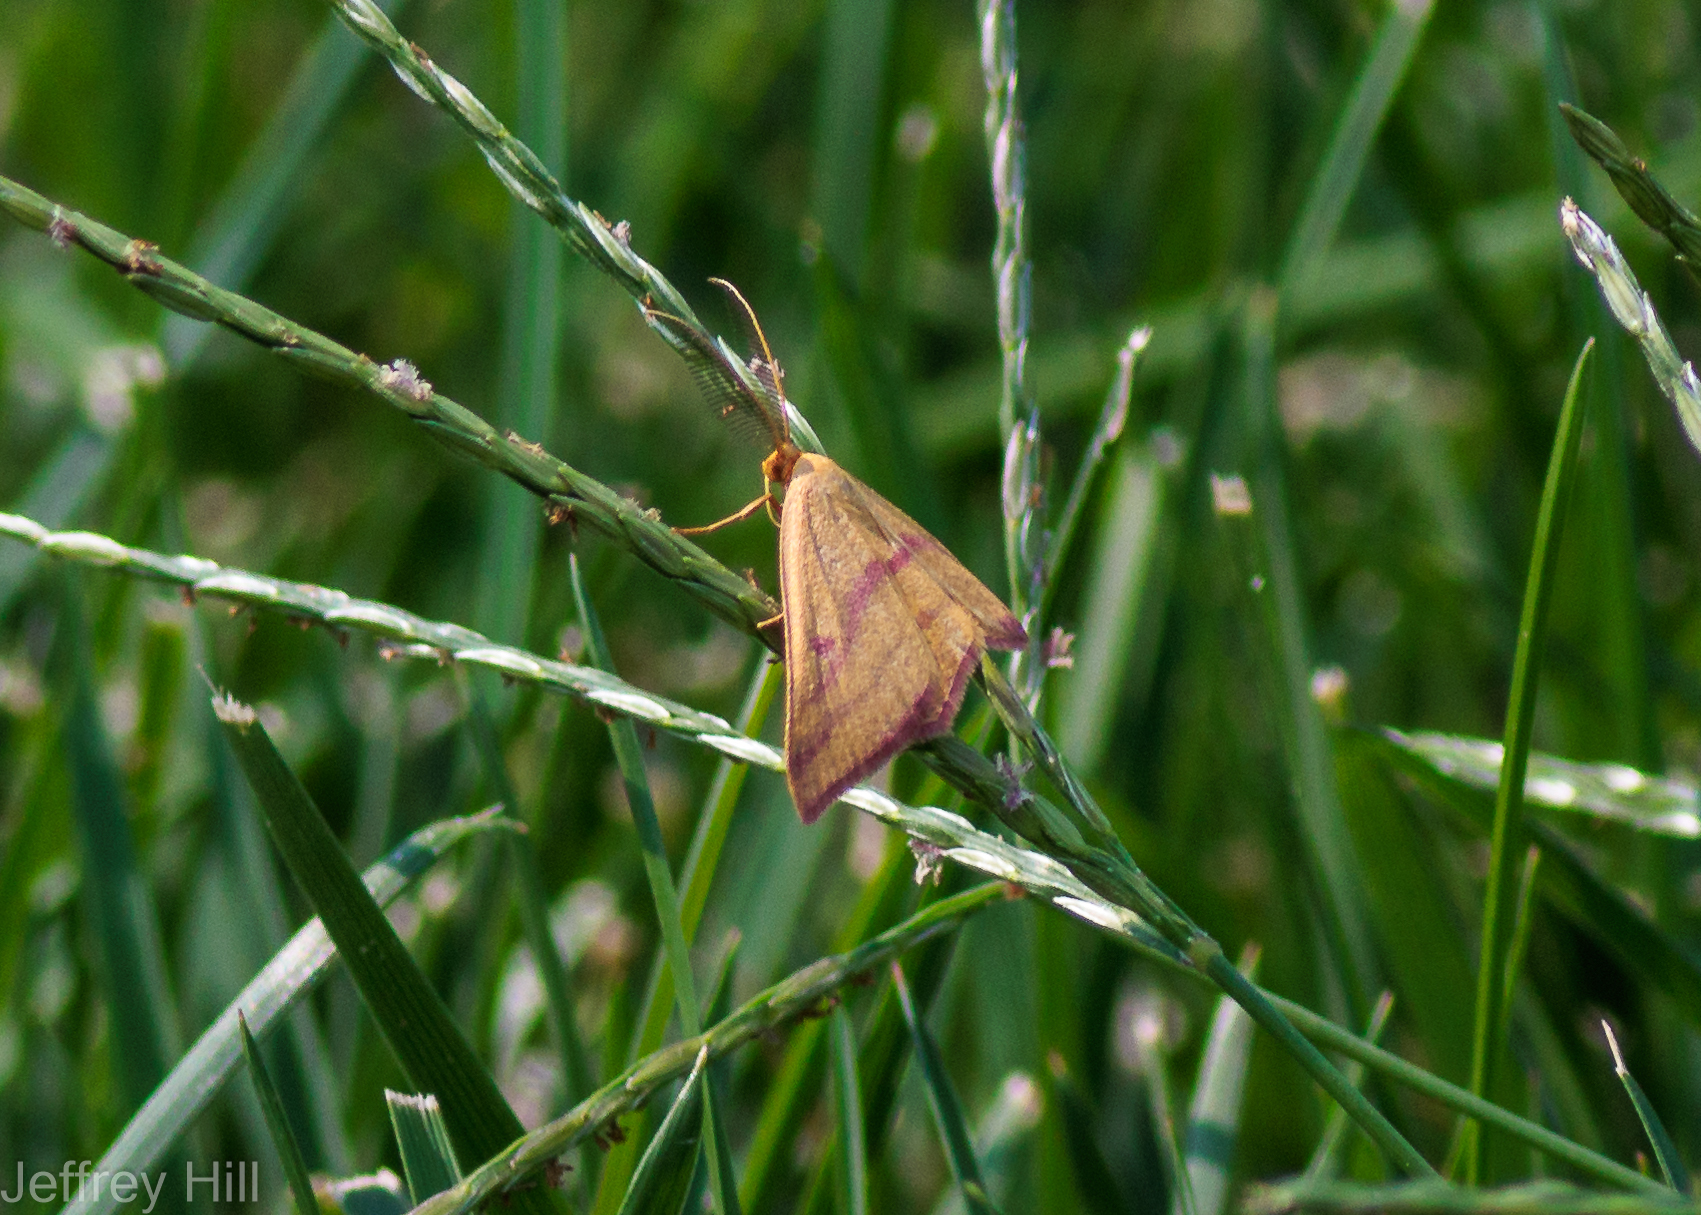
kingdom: Animalia
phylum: Arthropoda
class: Insecta
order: Lepidoptera
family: Geometridae
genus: Haematopis
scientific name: Haematopis grataria
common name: Chickweed geometer
